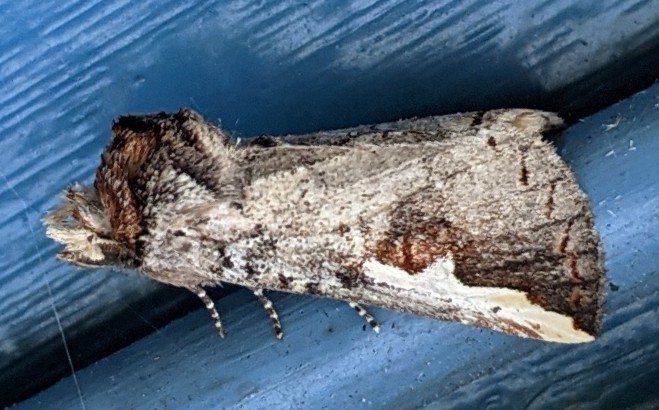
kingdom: Animalia
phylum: Arthropoda
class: Insecta
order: Lepidoptera
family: Notodontidae
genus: Symmerista
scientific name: Symmerista albifrons
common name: White-headed prominent
